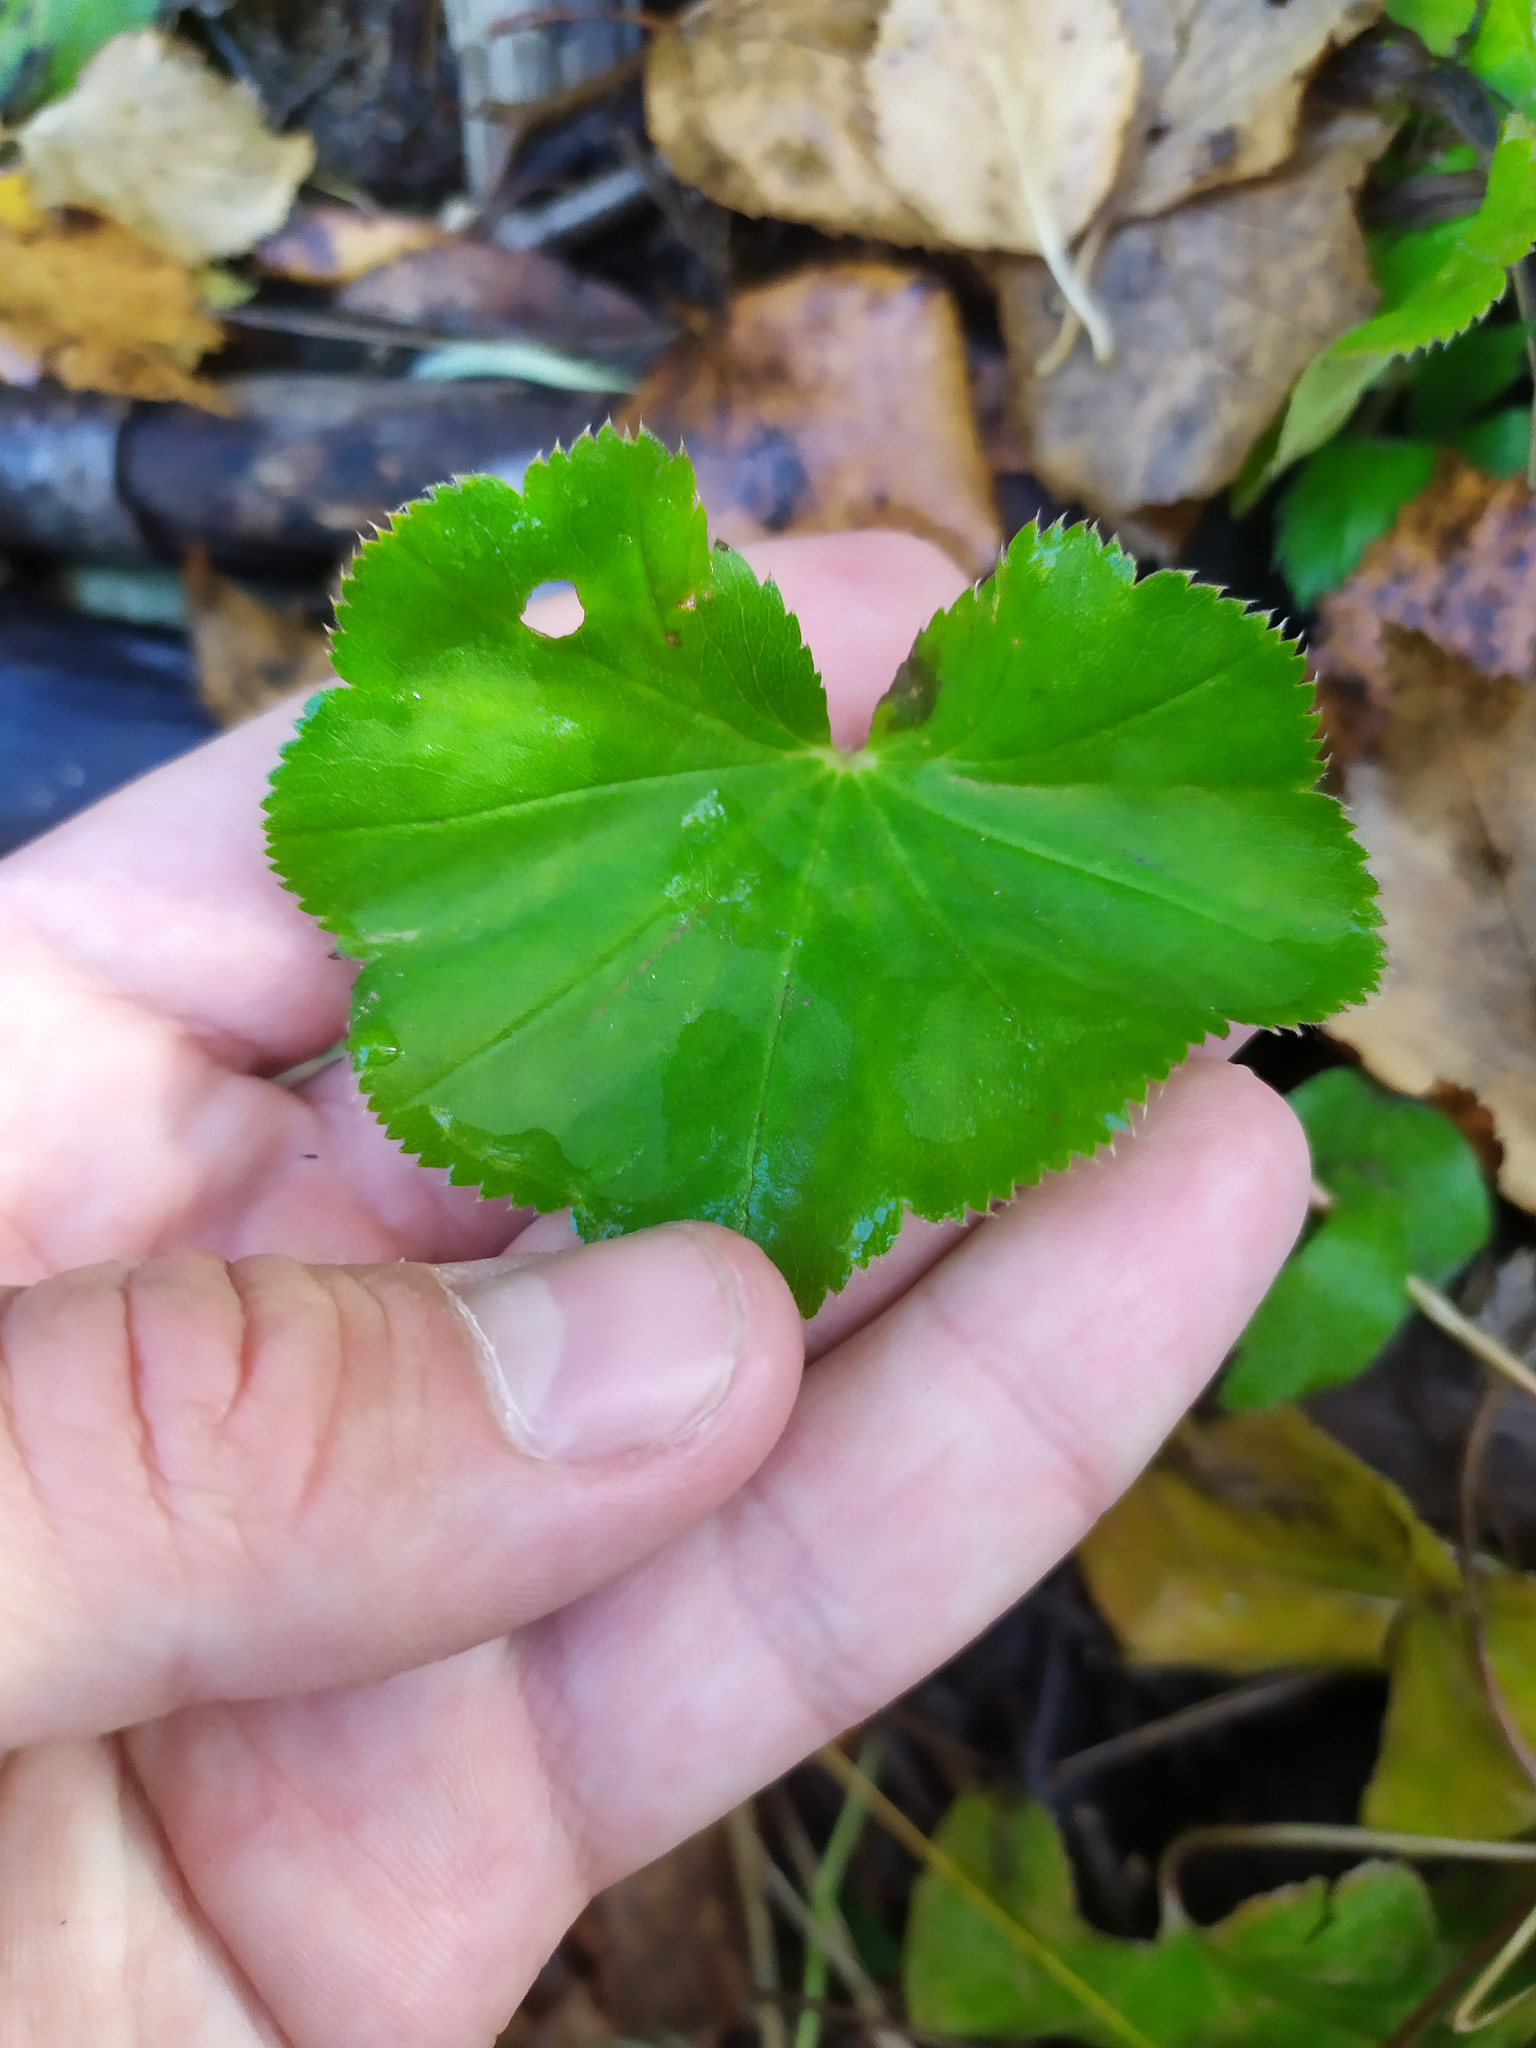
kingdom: Plantae
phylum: Tracheophyta
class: Magnoliopsida
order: Rosales
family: Rosaceae
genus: Alchemilla
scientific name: Alchemilla
